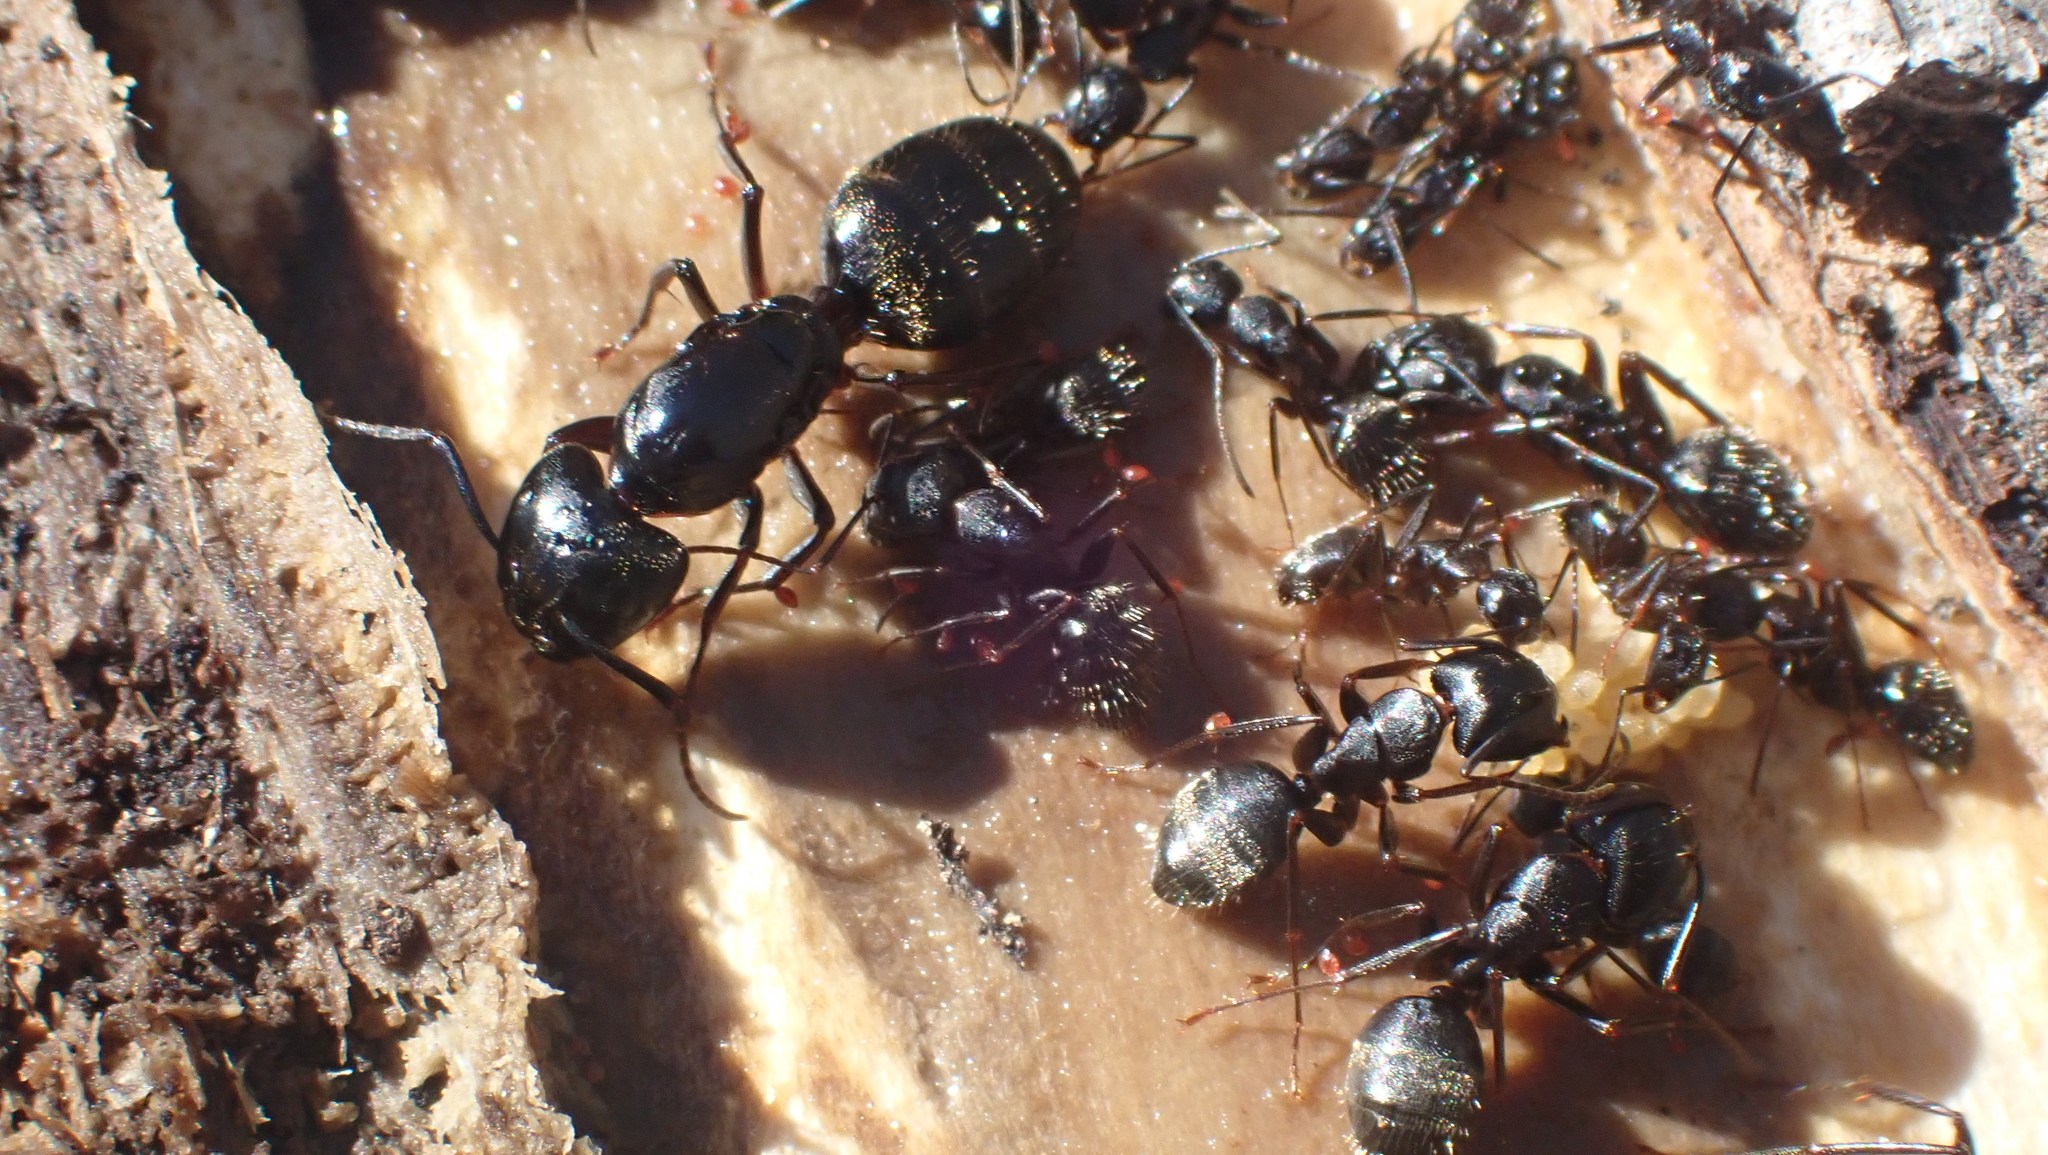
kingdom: Animalia
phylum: Arthropoda
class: Insecta
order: Hymenoptera
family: Formicidae
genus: Camponotus
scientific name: Camponotus pennsylvanicus
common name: Black carpenter ant
